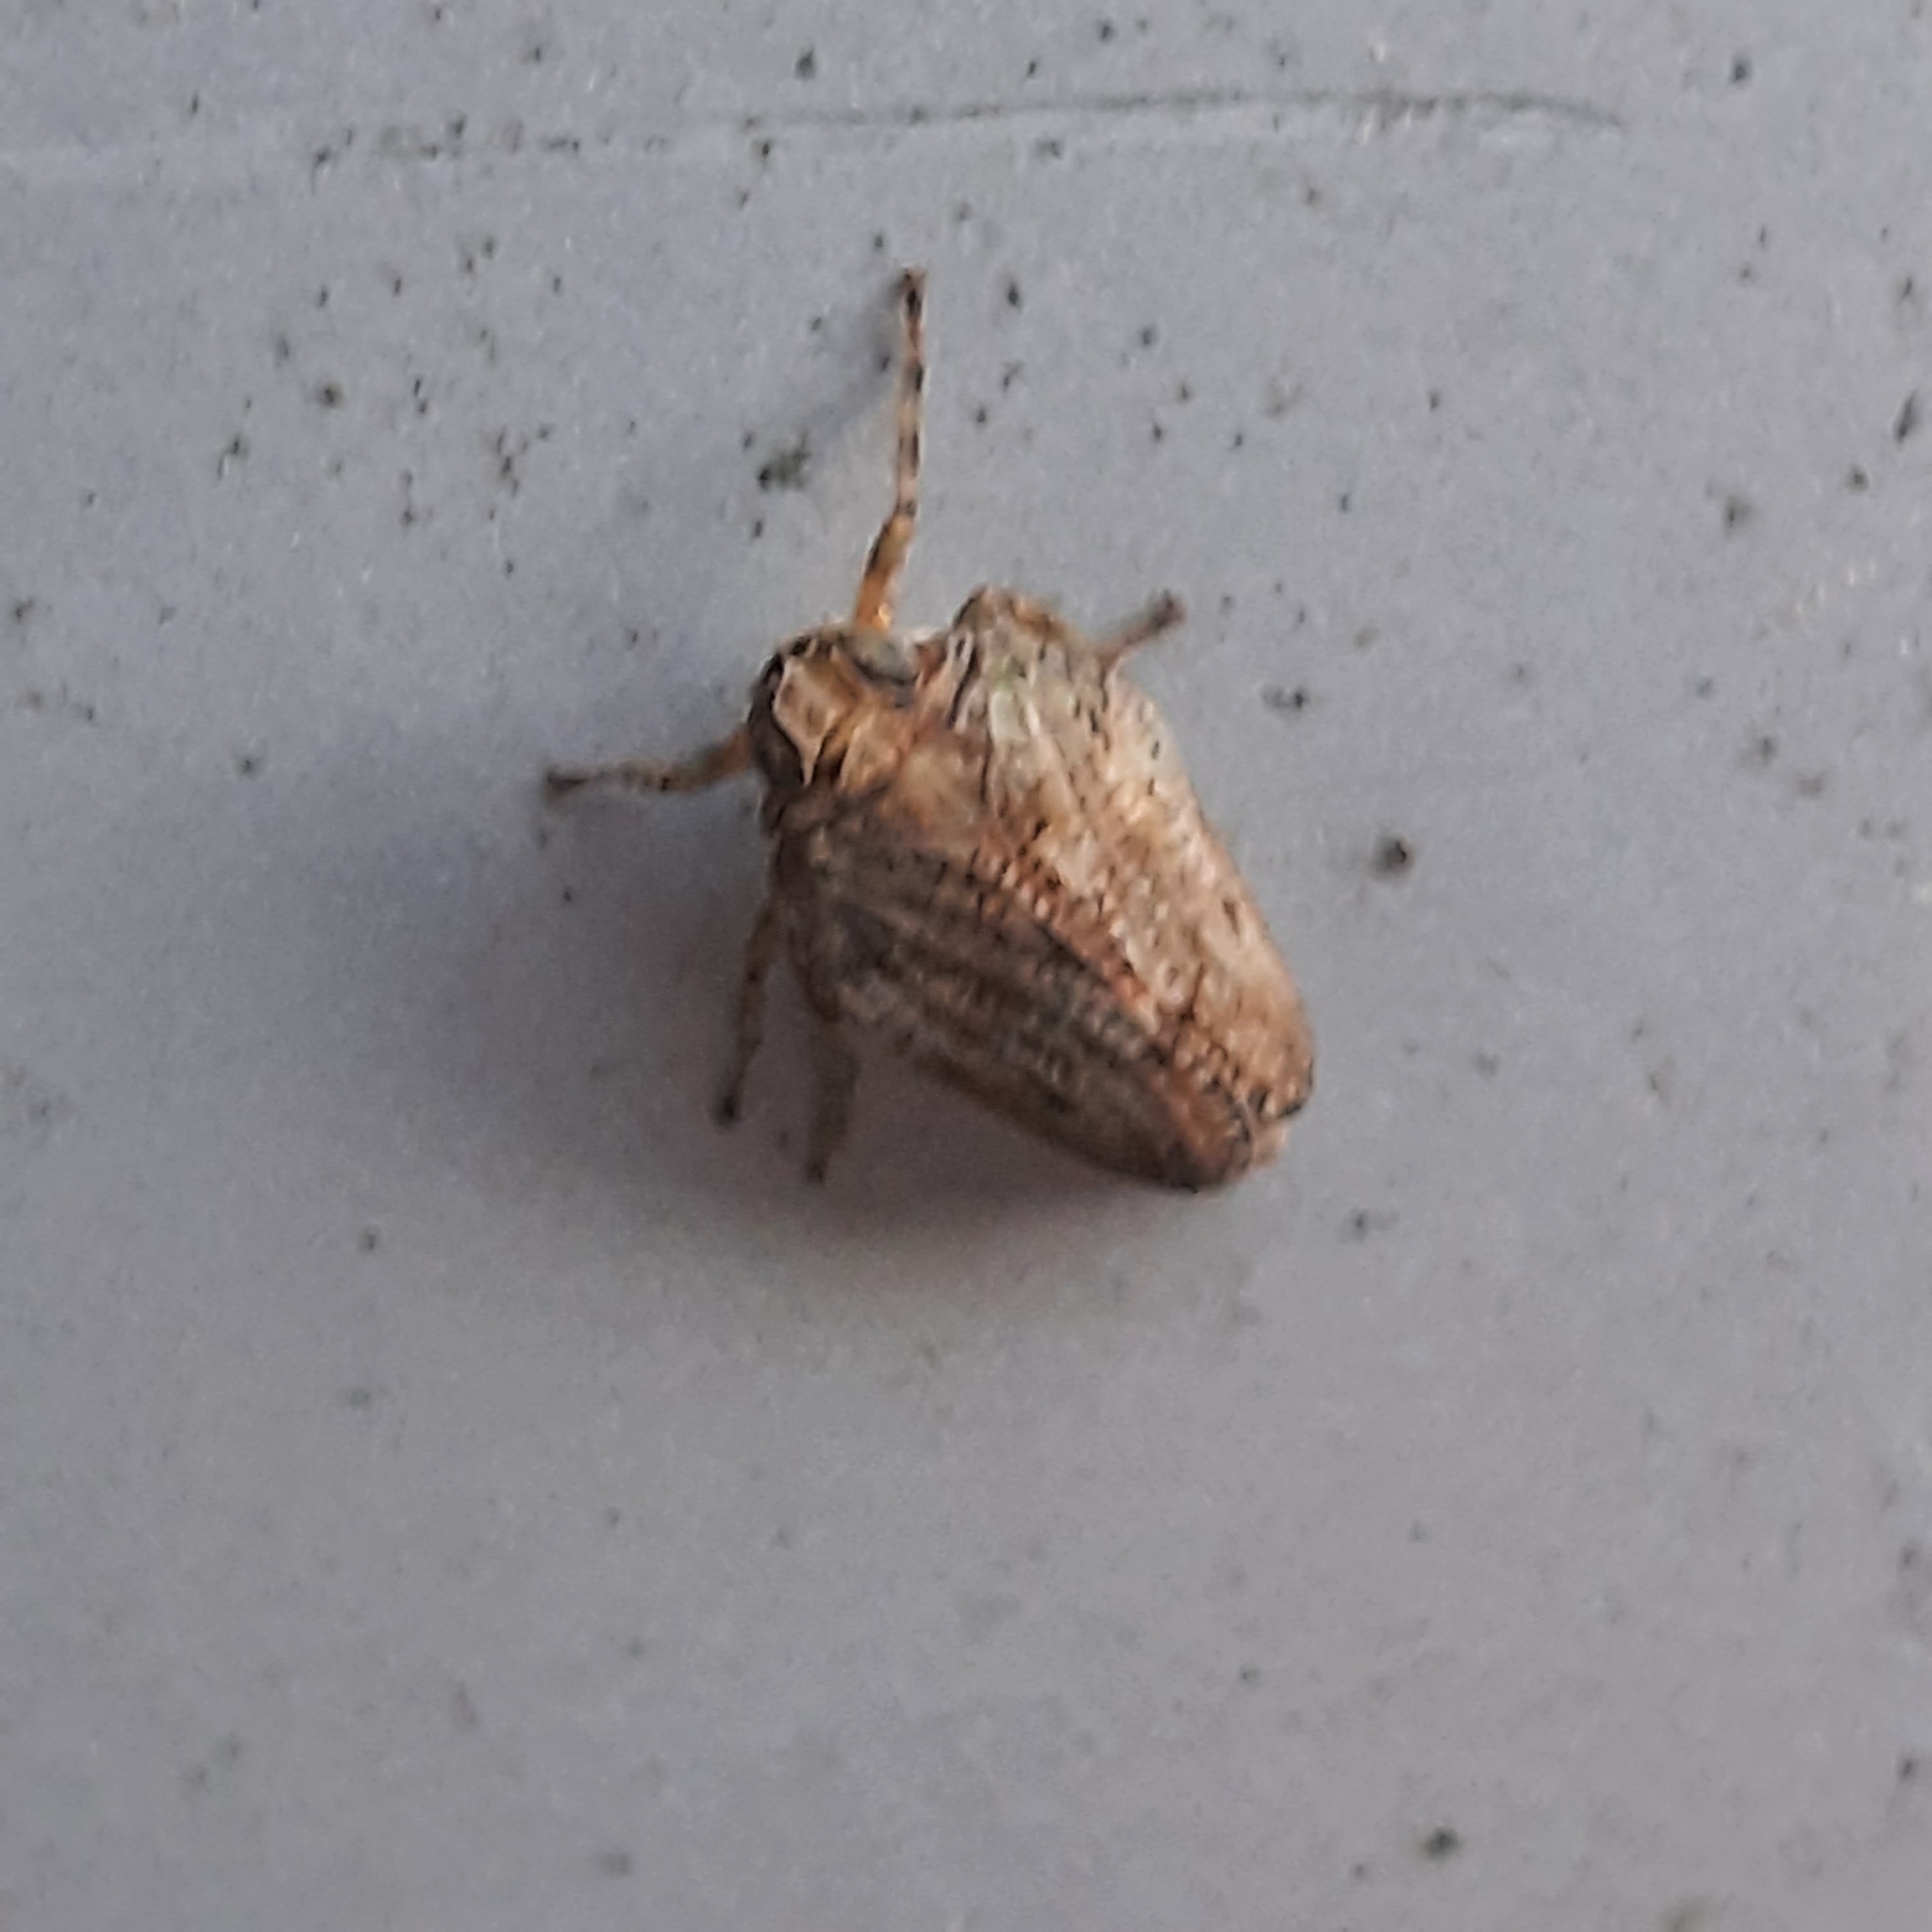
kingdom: Animalia
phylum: Arthropoda
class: Insecta
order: Hemiptera
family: Issidae
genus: Issus
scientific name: Issus coleoptratus
